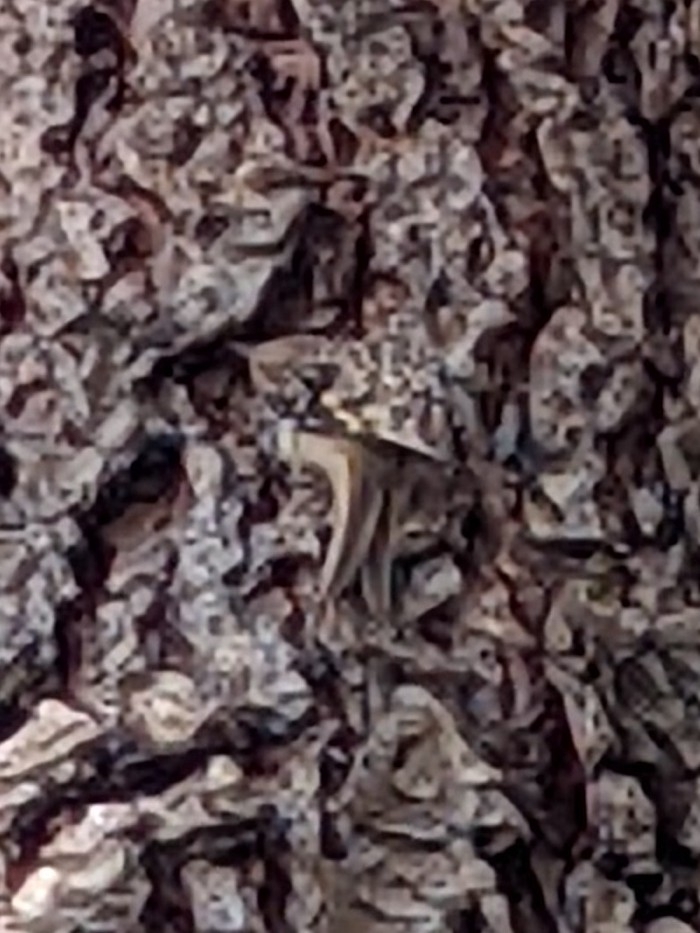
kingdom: Animalia
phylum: Chordata
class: Aves
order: Passeriformes
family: Certhiidae
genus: Certhia
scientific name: Certhia americana
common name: Brown creeper
